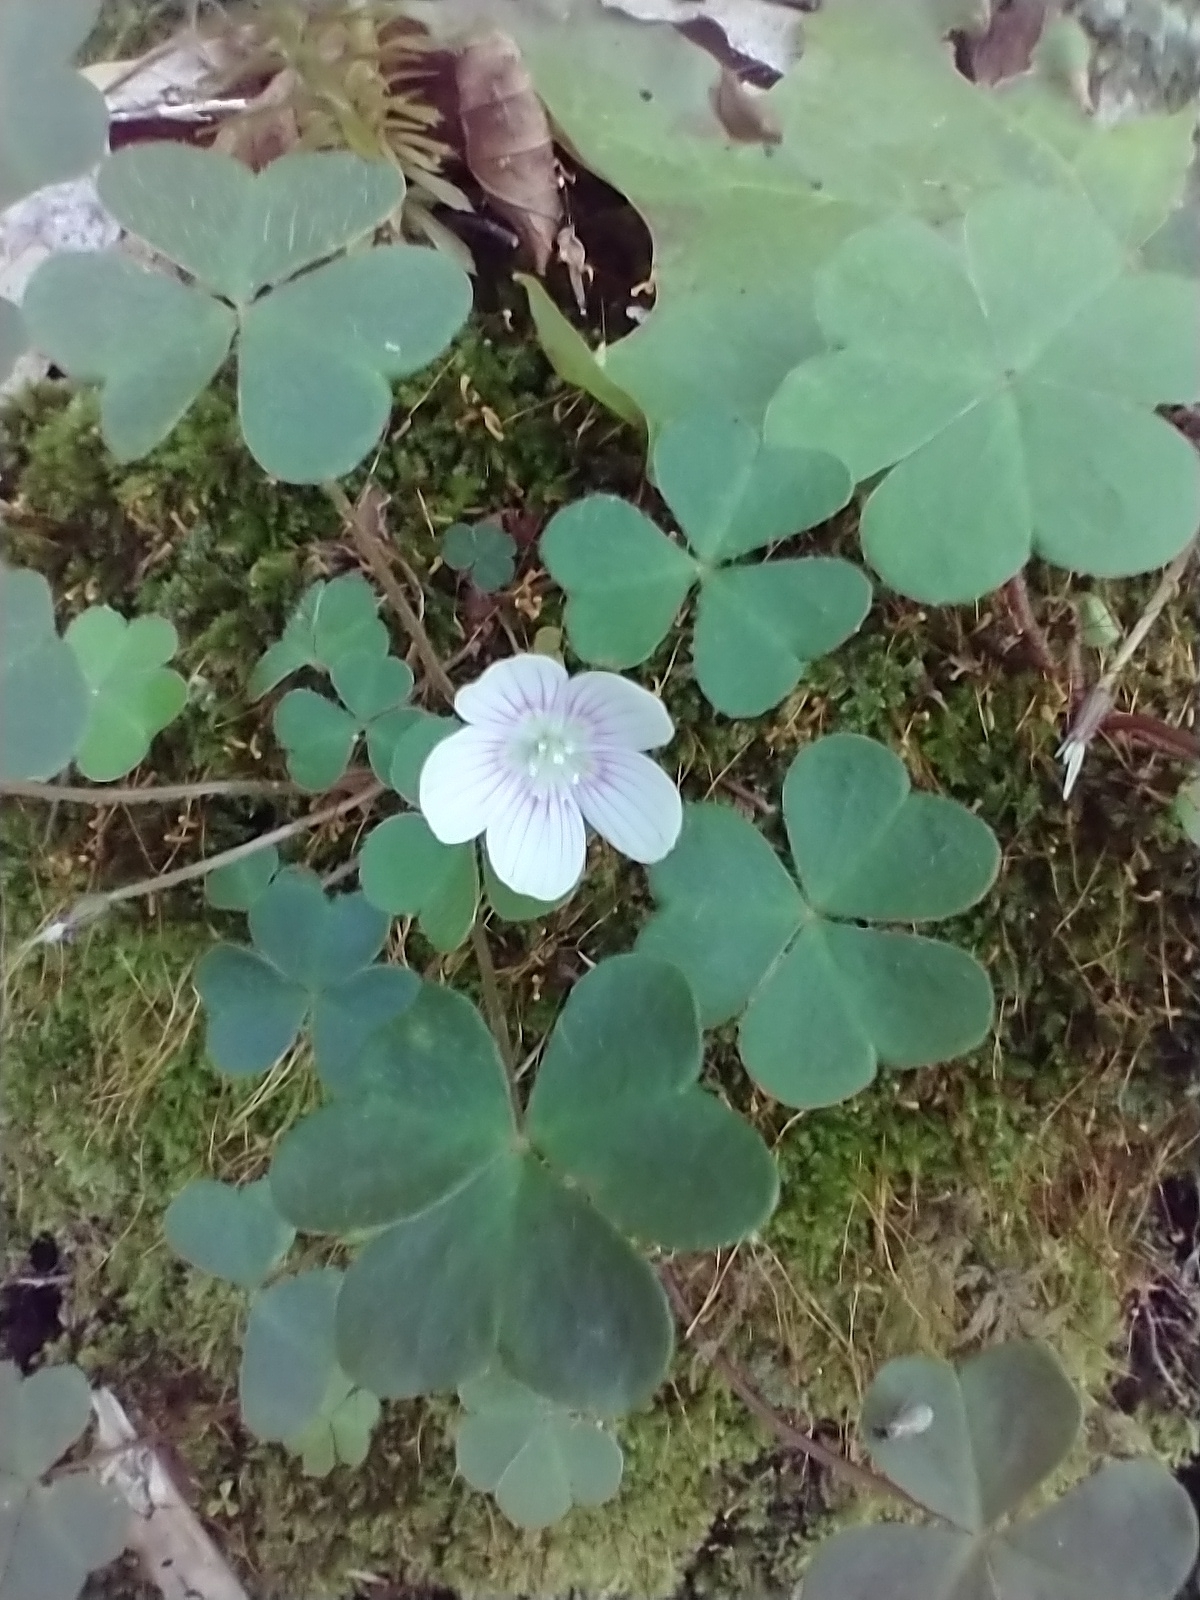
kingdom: Plantae
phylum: Tracheophyta
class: Magnoliopsida
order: Oxalidales
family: Oxalidaceae
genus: Oxalis
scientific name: Oxalis montana
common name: American wood-sorrel
